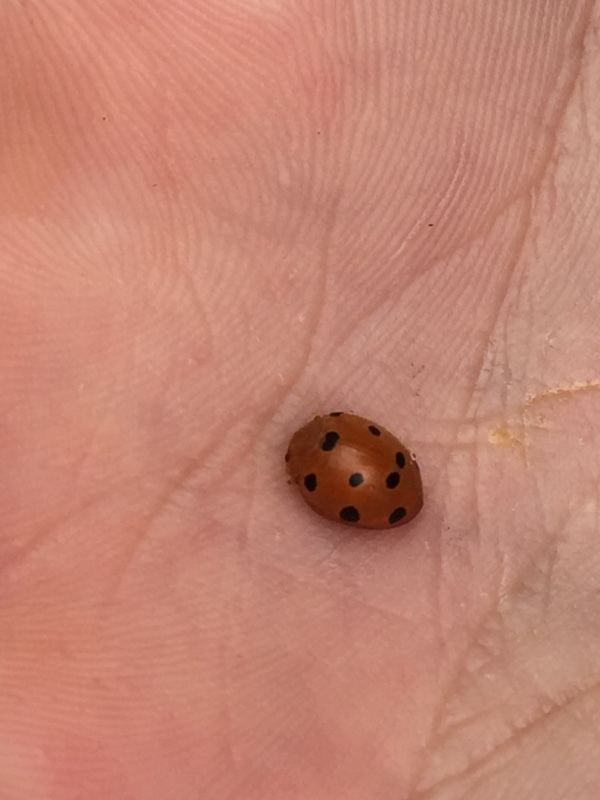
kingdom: Animalia
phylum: Arthropoda
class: Insecta
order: Coleoptera
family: Coccinellidae
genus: Henosepilachna
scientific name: Henosepilachna argus
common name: Bryony ladybird
